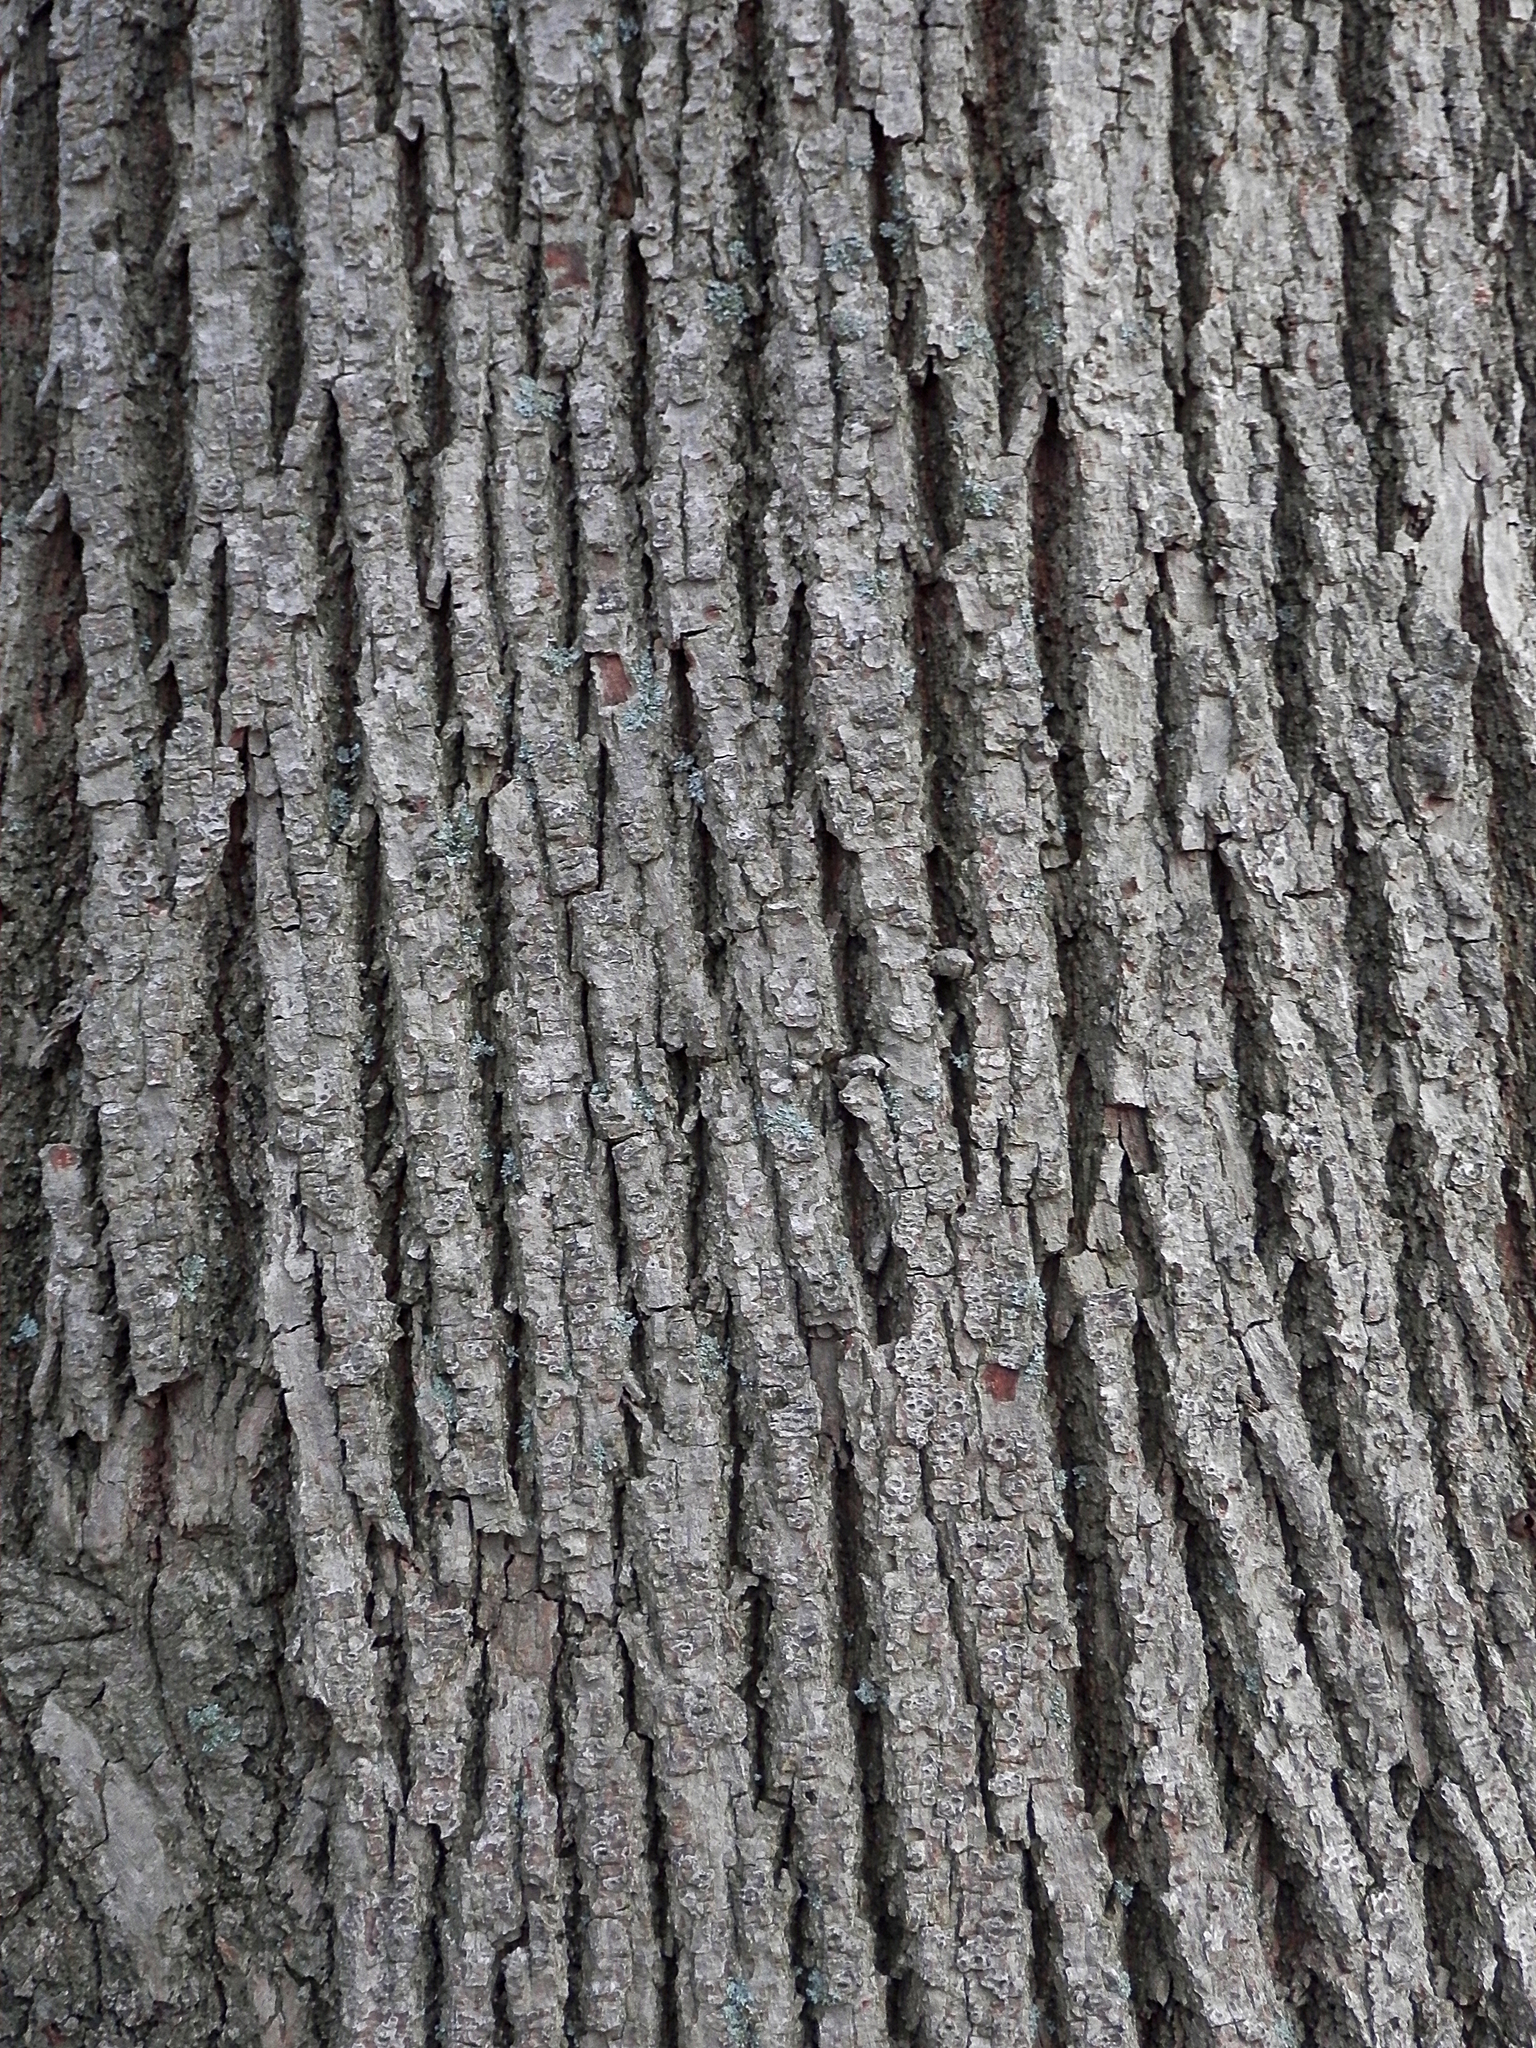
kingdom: Plantae
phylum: Tracheophyta
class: Magnoliopsida
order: Malvales
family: Malvaceae
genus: Tilia
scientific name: Tilia americana
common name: Basswood
